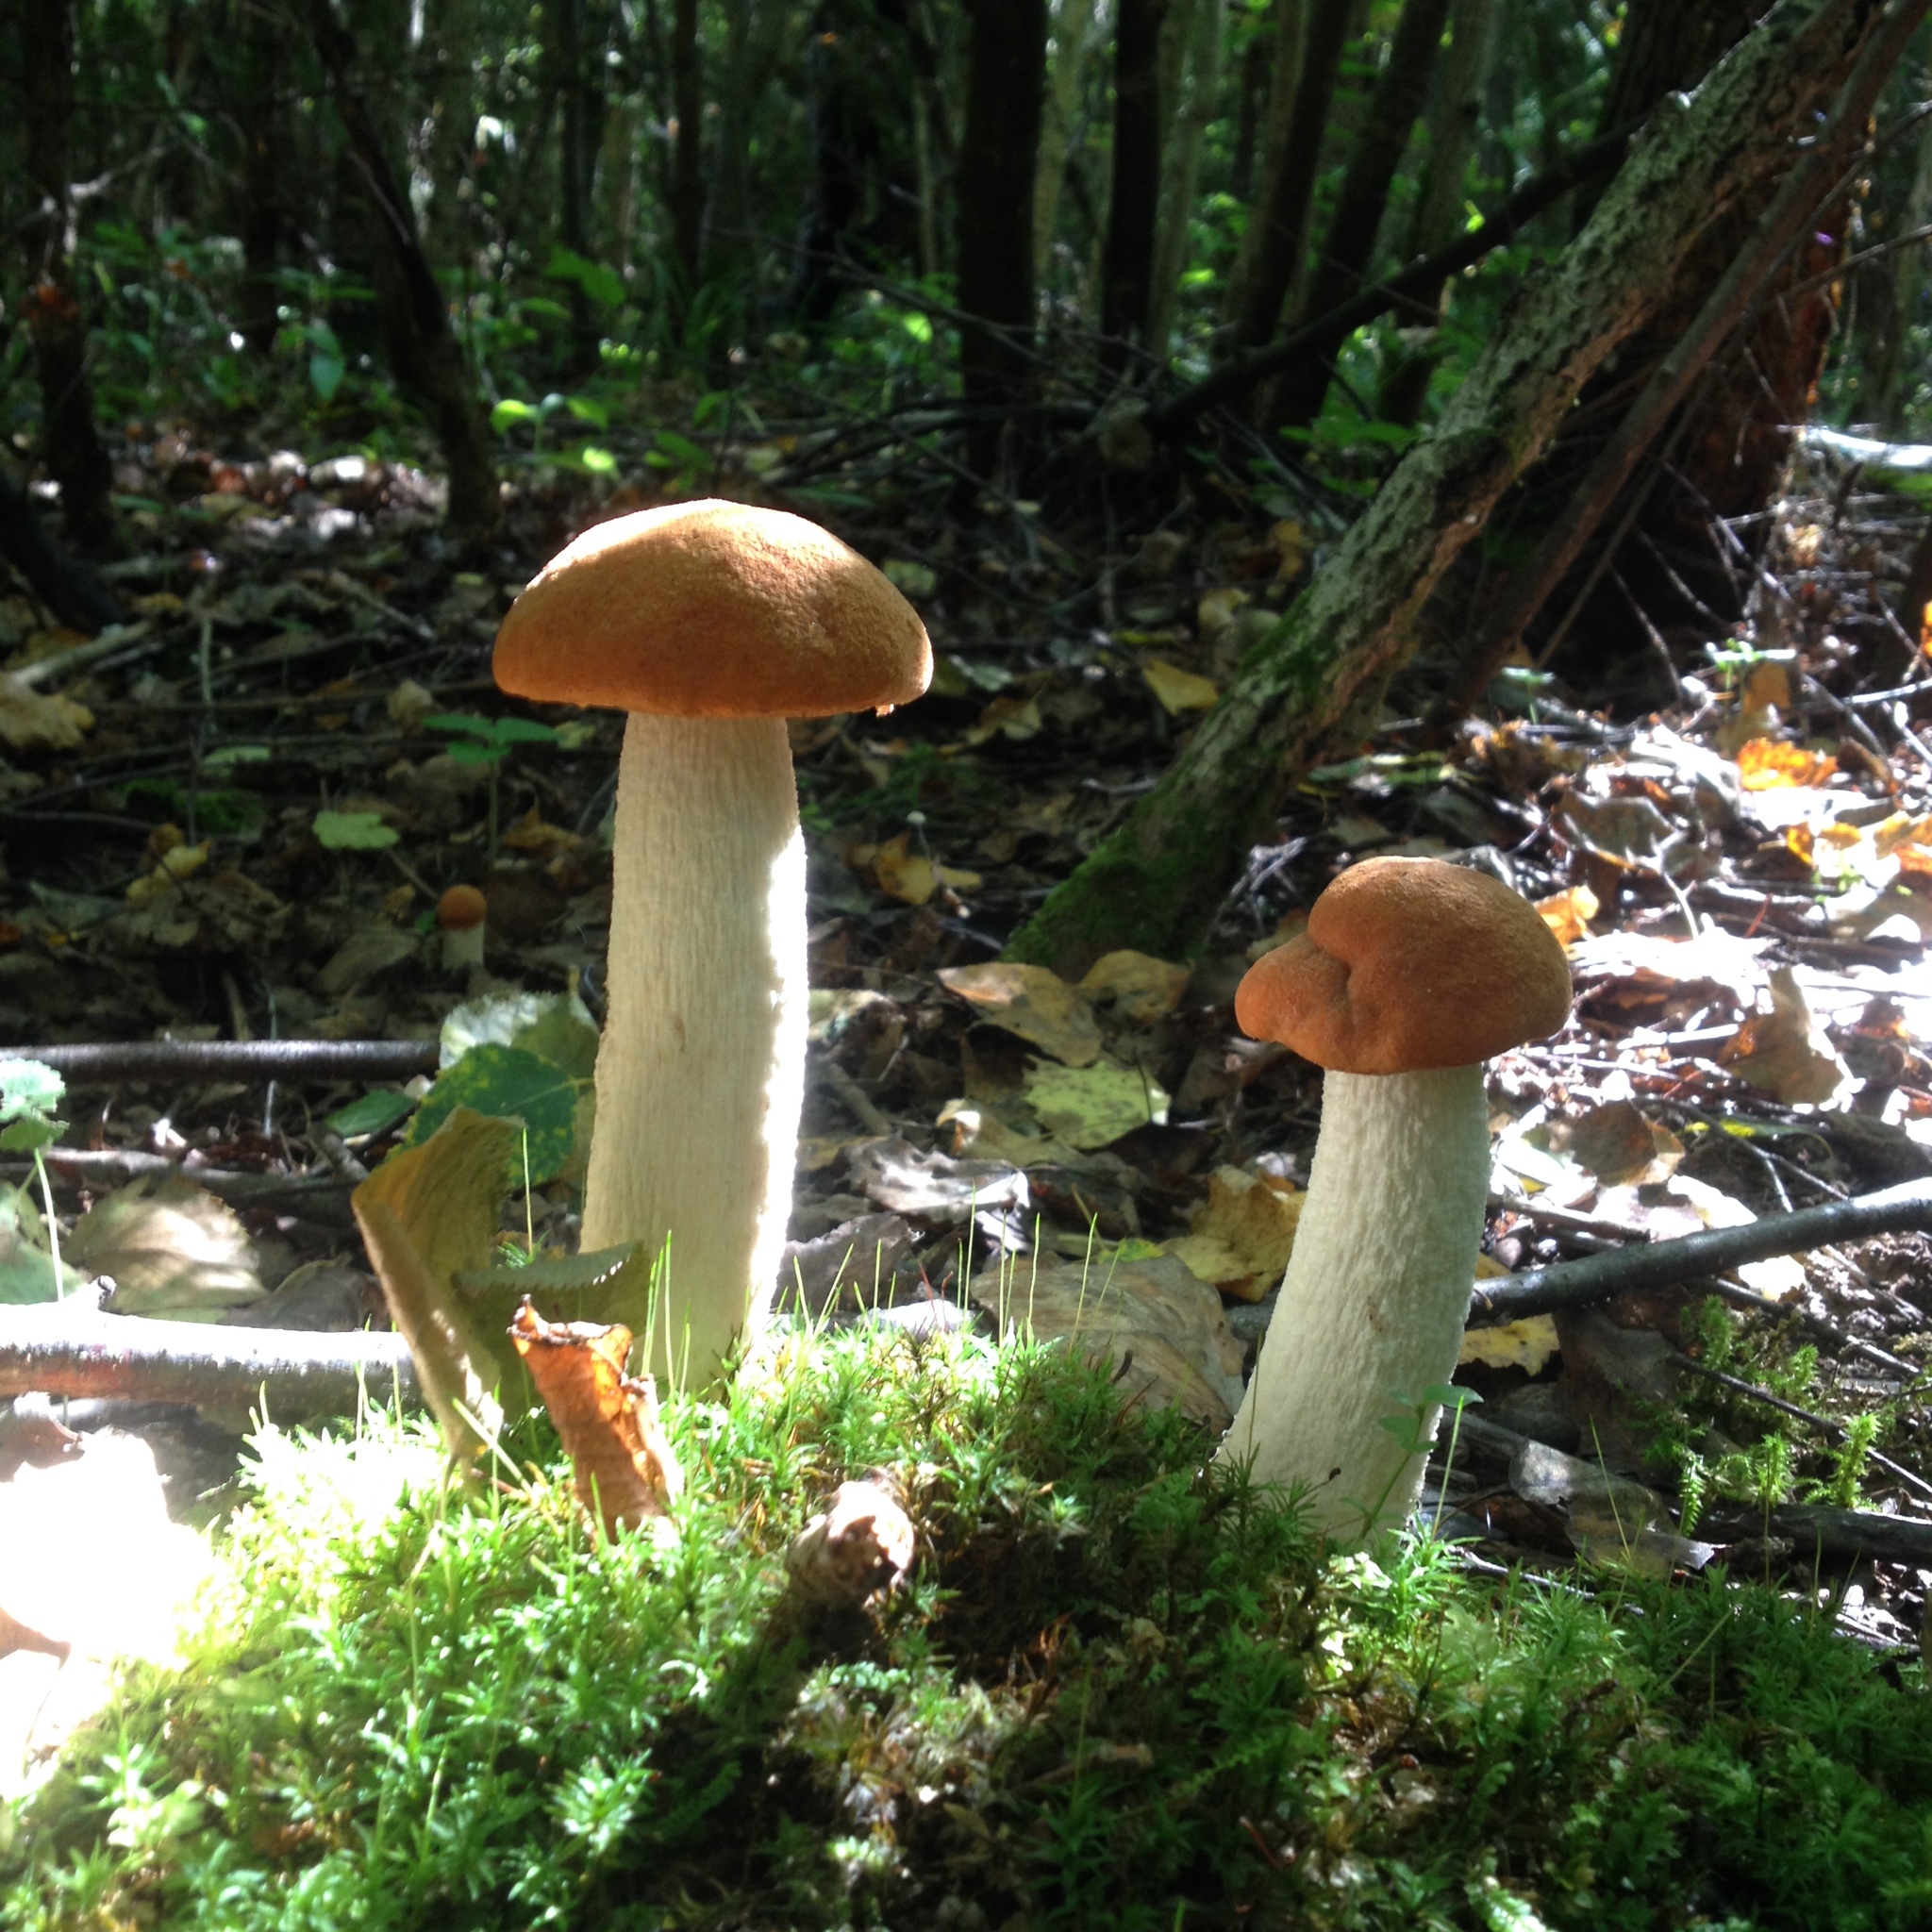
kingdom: Fungi
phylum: Basidiomycota
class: Agaricomycetes
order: Boletales
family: Boletaceae
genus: Leccinum
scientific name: Leccinum albostipitatum
